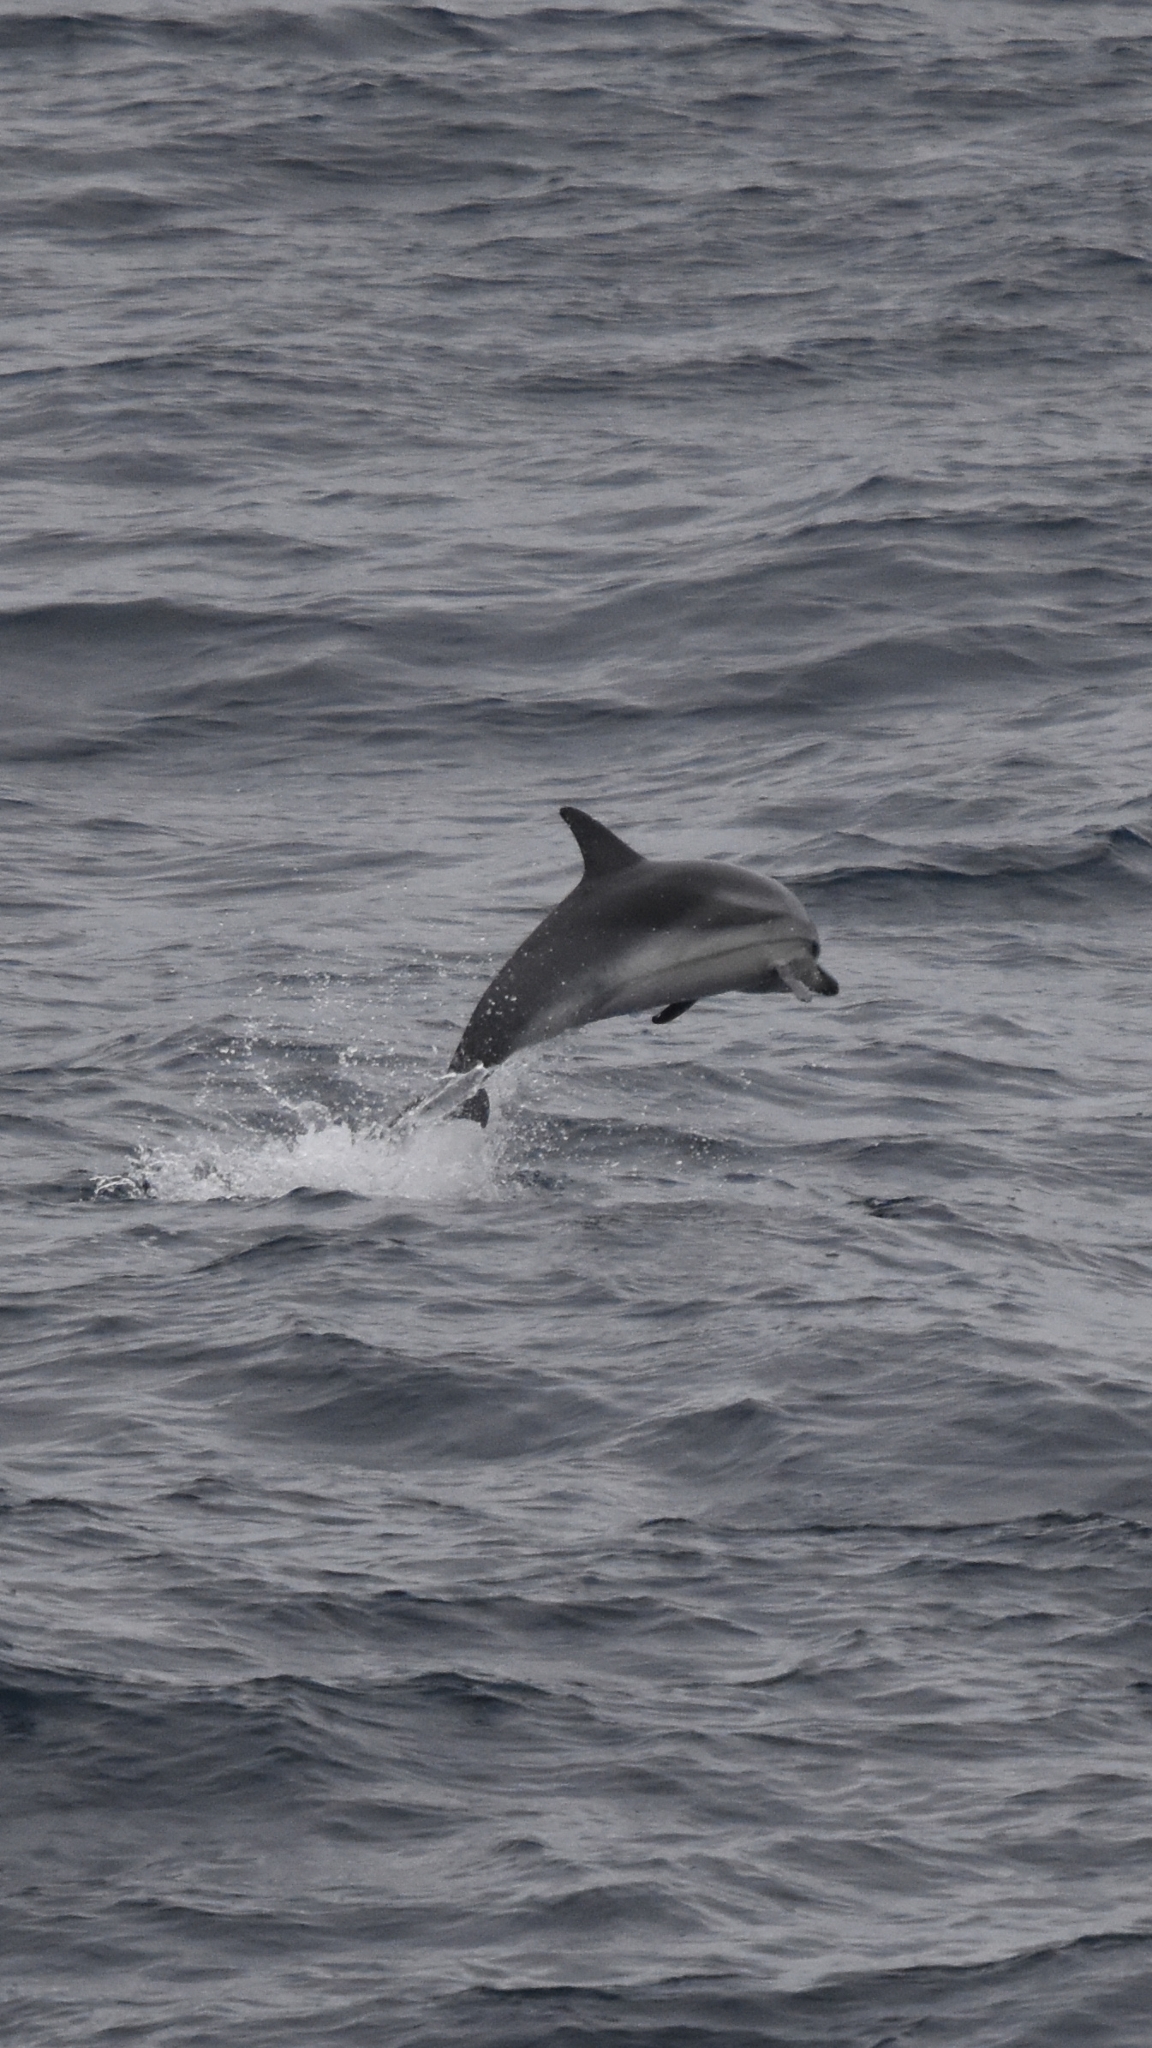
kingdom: Animalia
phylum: Chordata
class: Mammalia
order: Cetacea
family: Delphinidae
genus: Stenella
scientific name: Stenella coeruleoalba
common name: Striped dolphin
